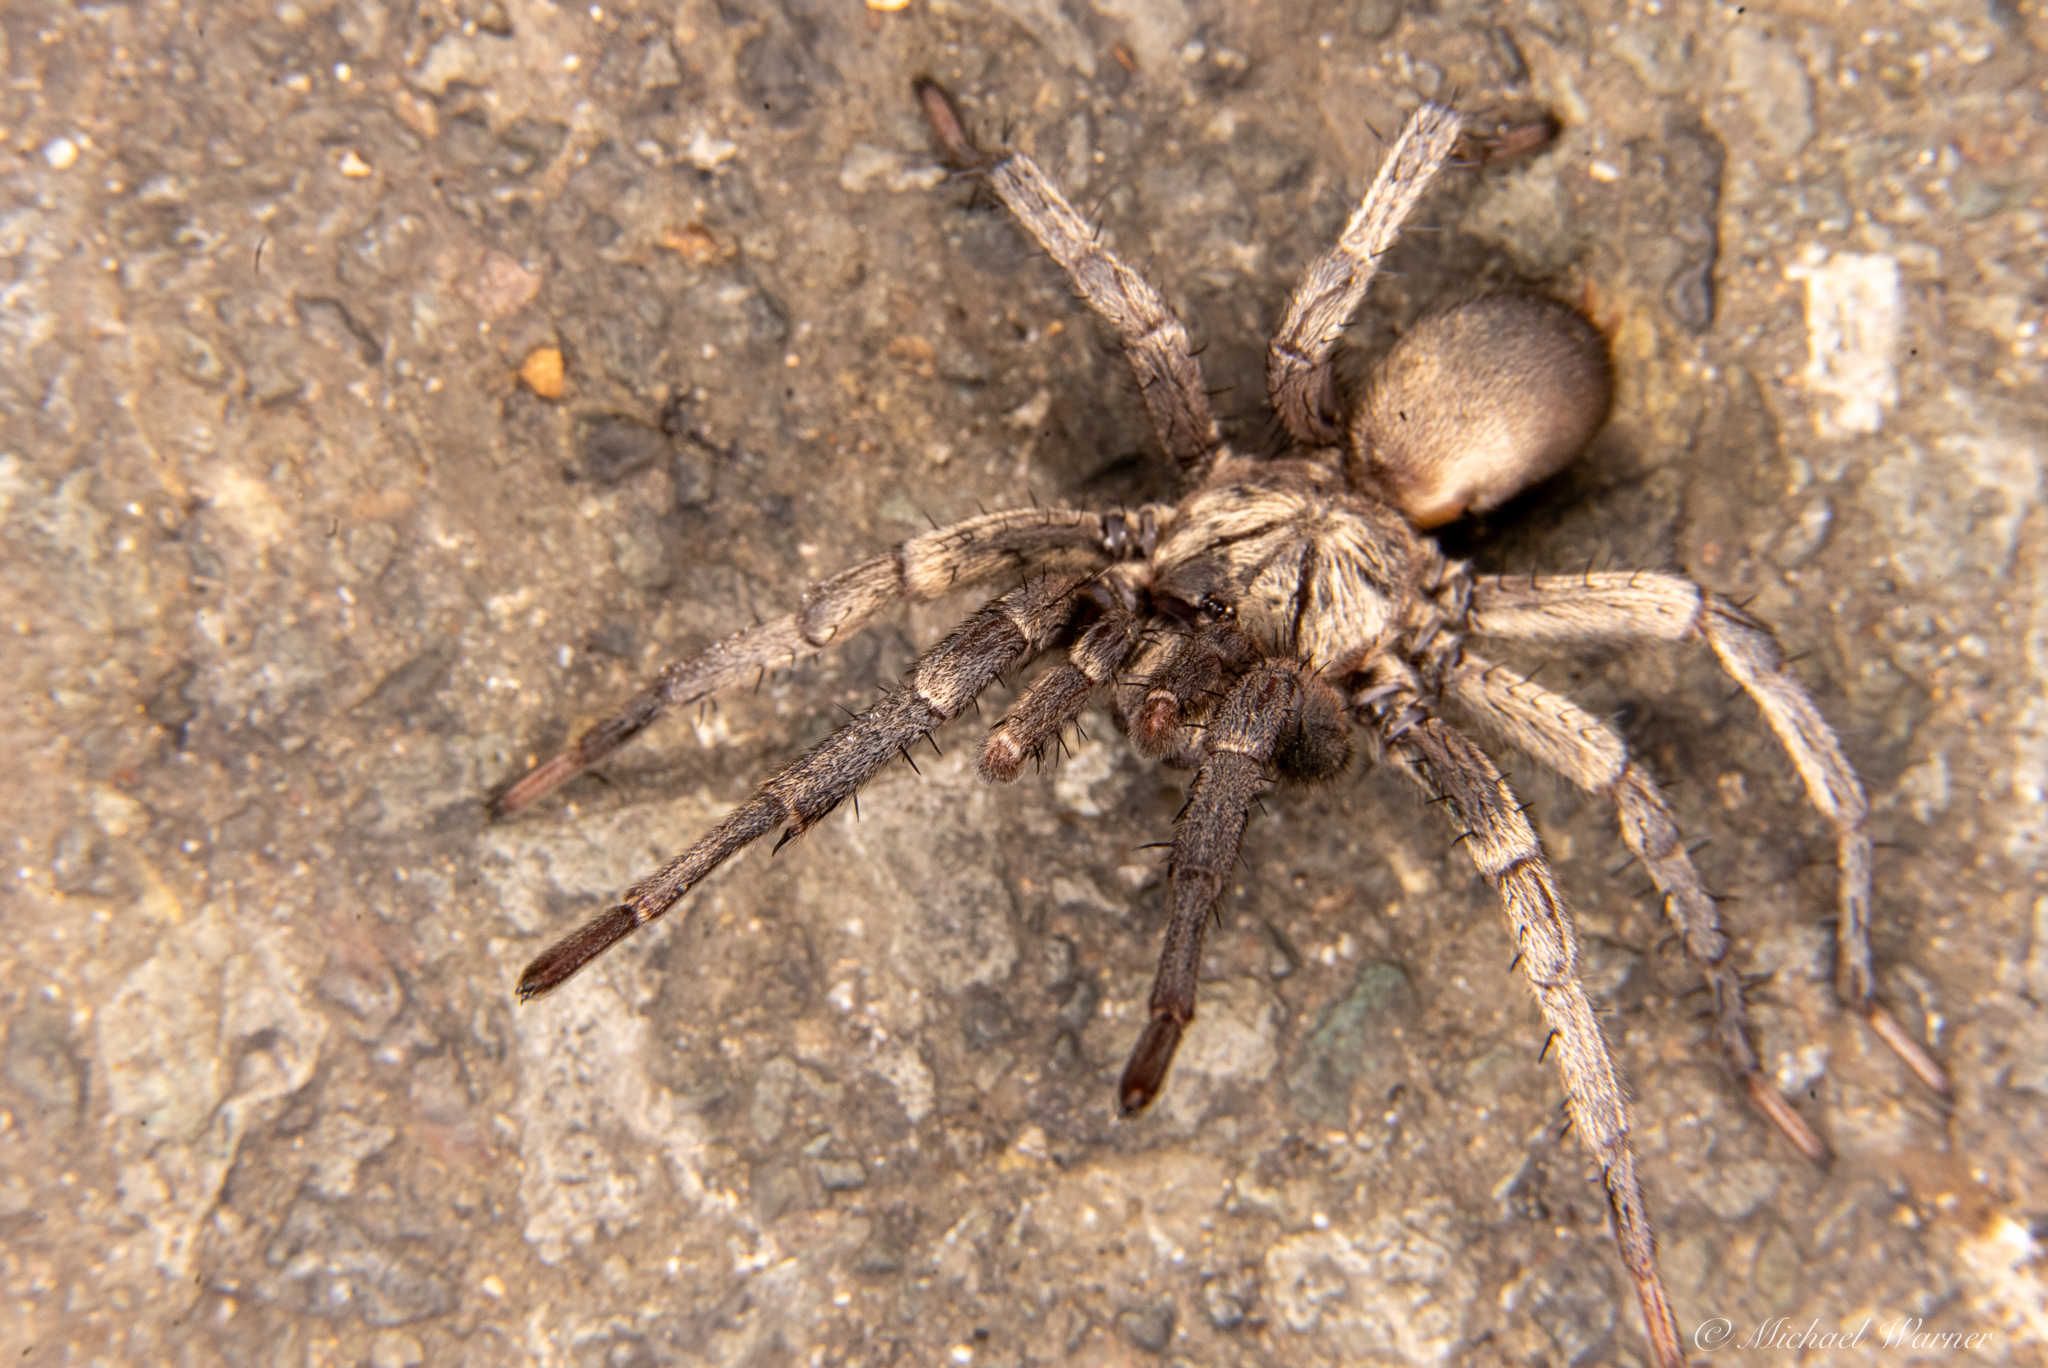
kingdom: Animalia
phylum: Arthropoda
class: Arachnida
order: Araneae
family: Nemesiidae
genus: Calisoga
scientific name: Calisoga longitarsis
